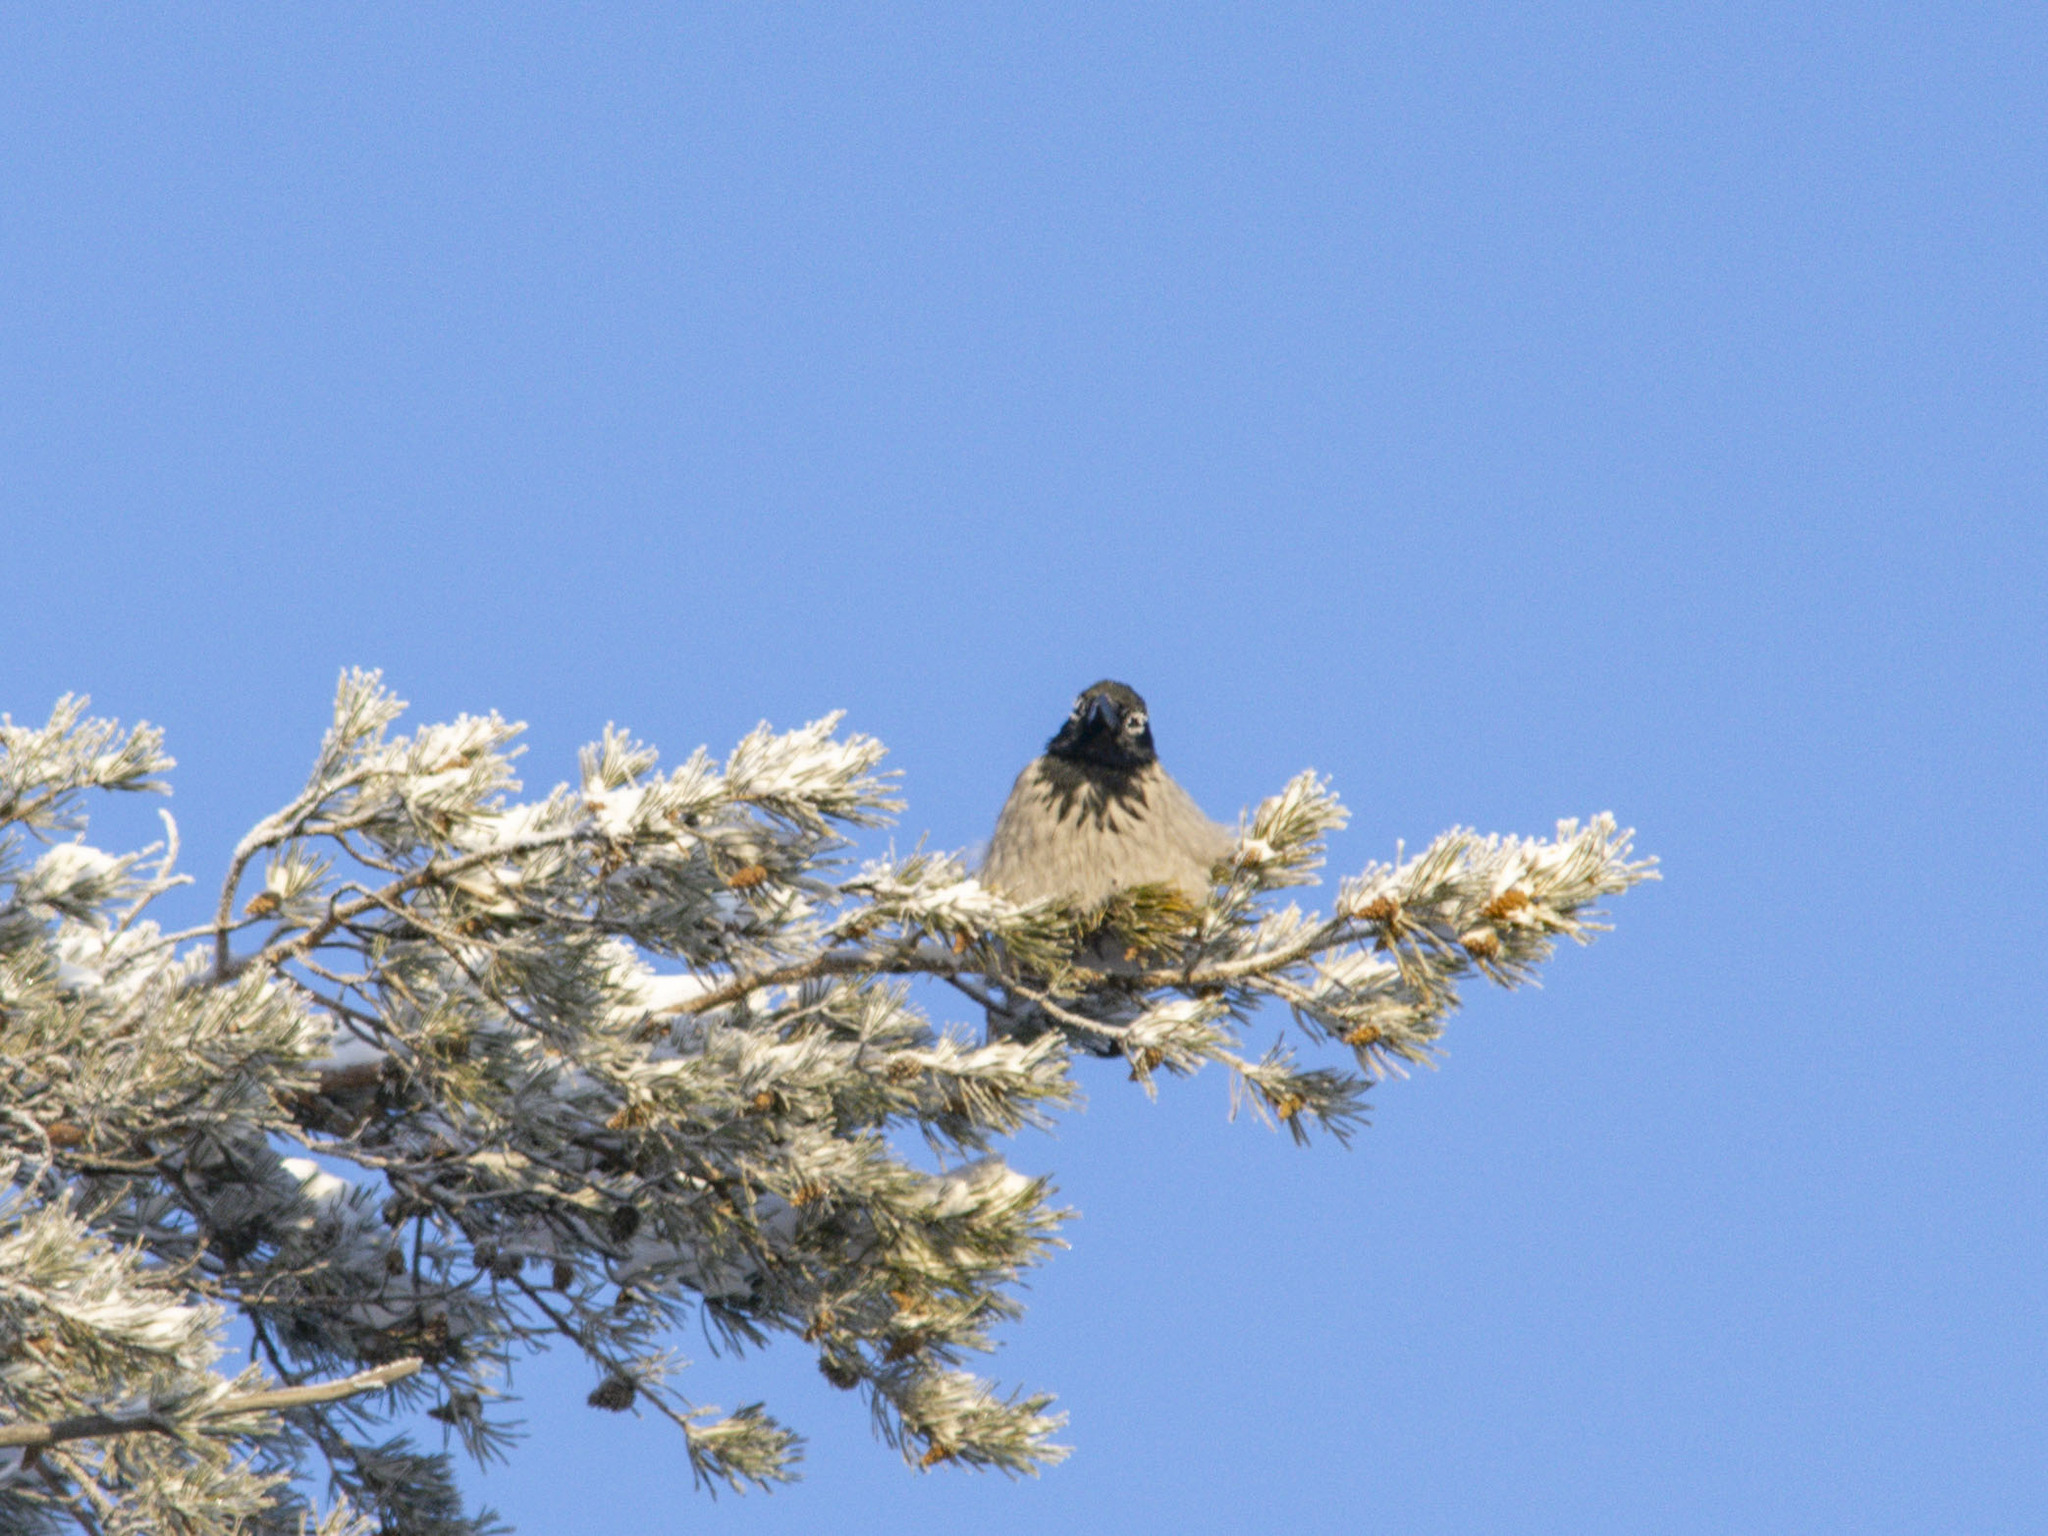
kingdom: Animalia
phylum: Chordata
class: Aves
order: Passeriformes
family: Corvidae
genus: Corvus
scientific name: Corvus cornix
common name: Hooded crow
